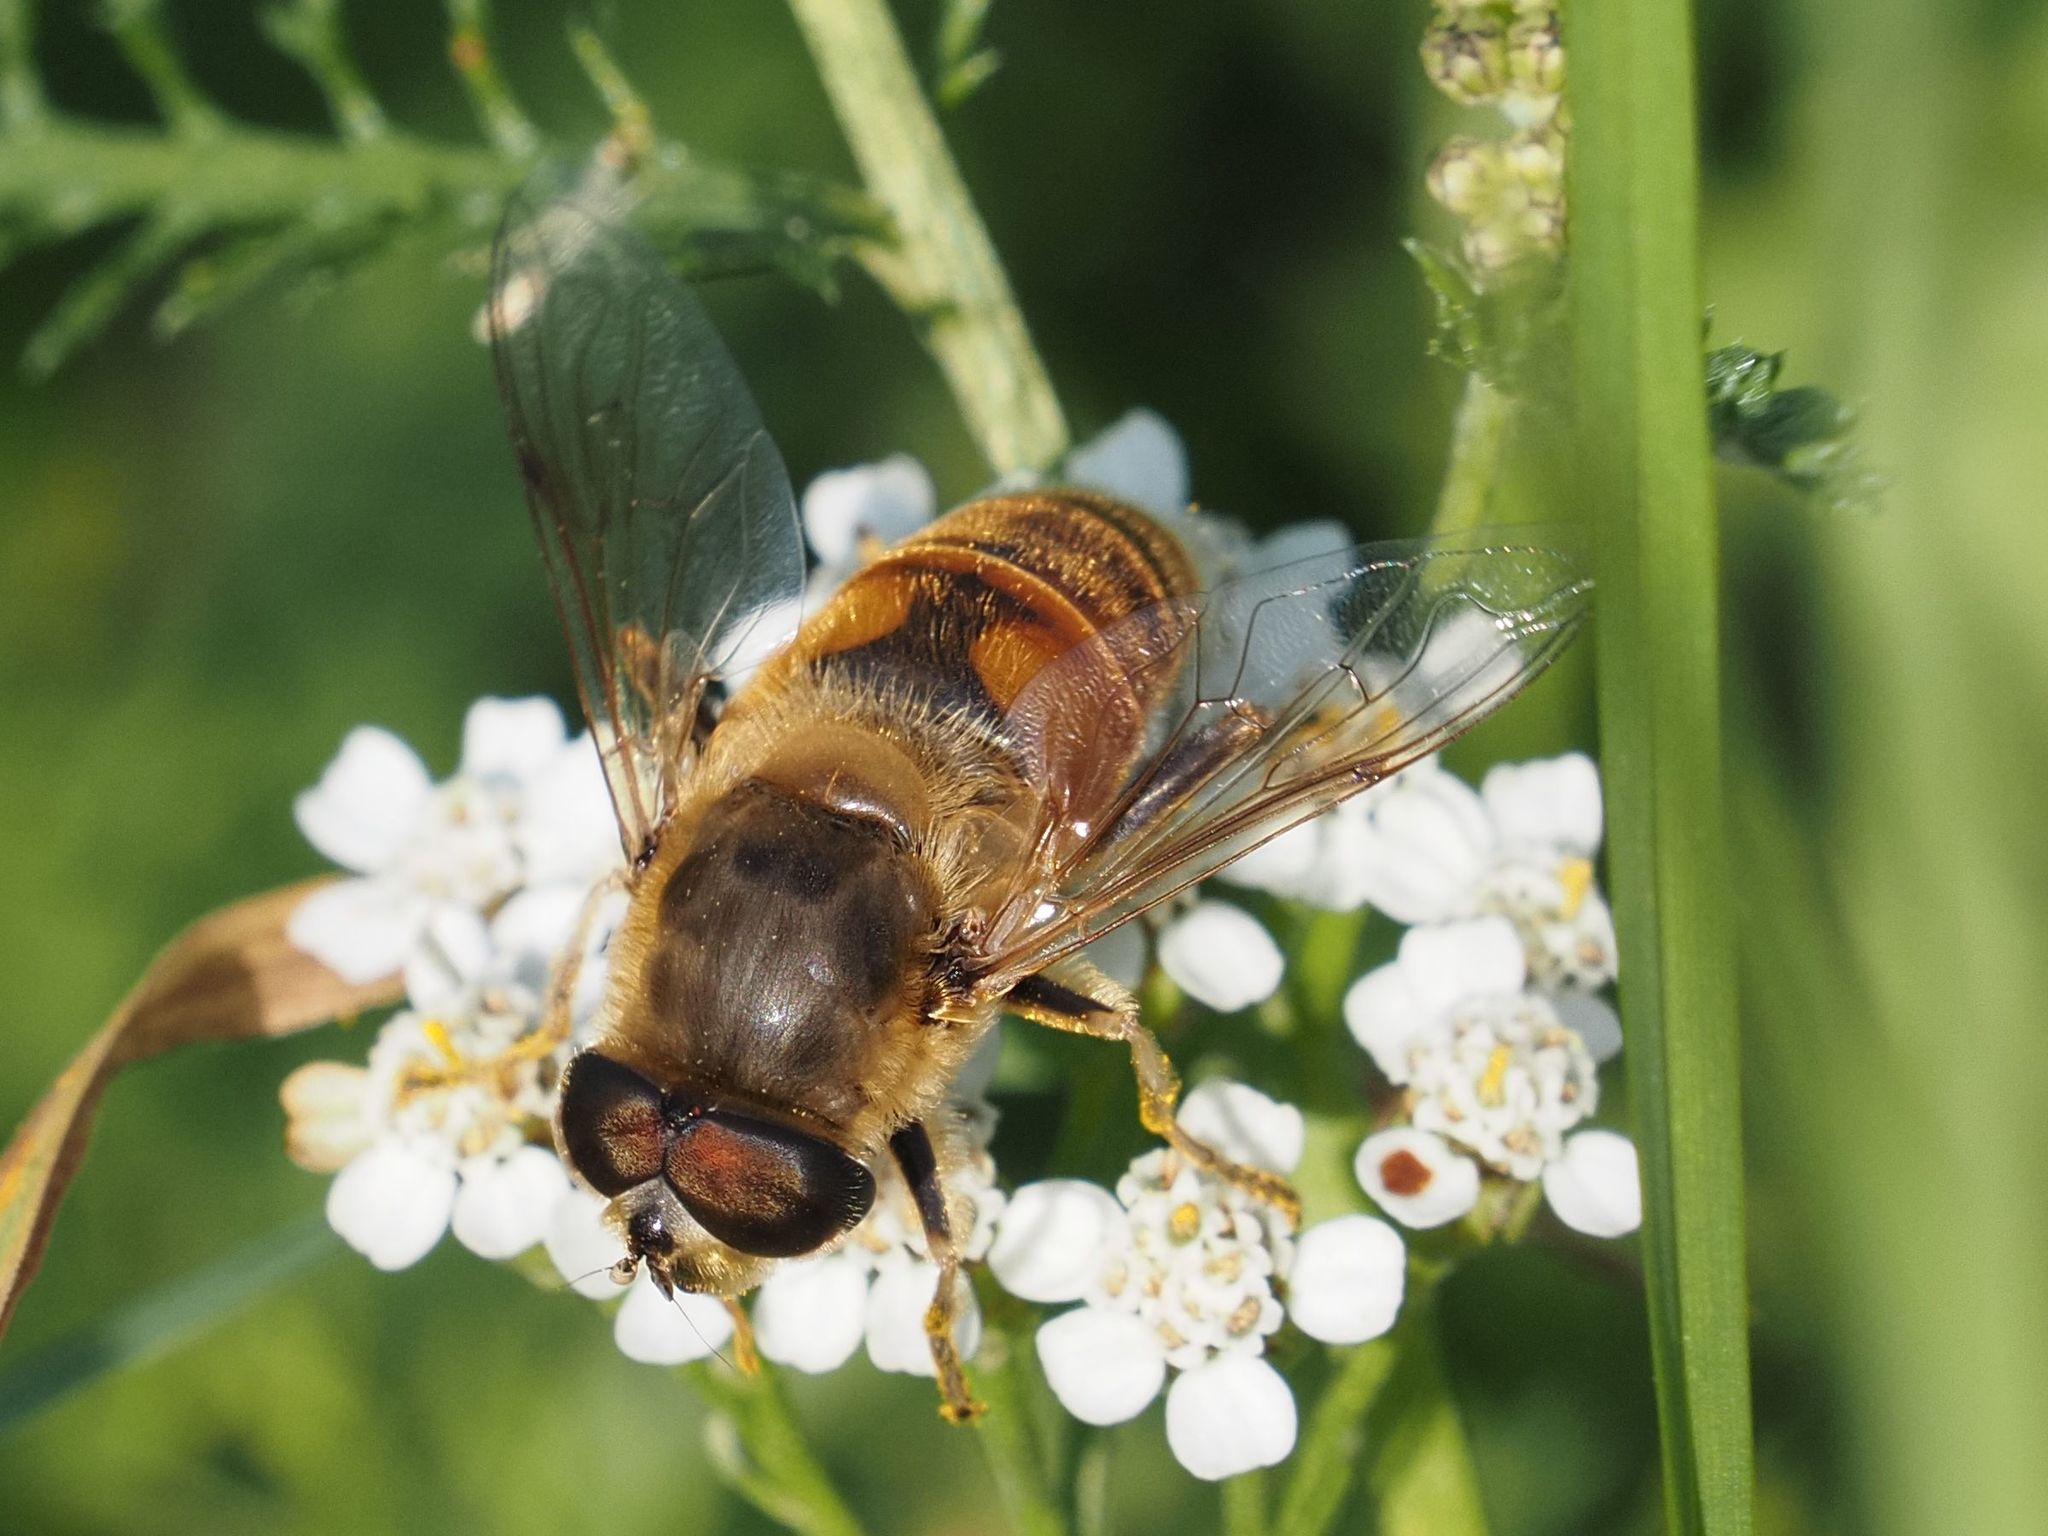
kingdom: Animalia
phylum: Arthropoda
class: Insecta
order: Diptera
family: Syrphidae
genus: Eristalis
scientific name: Eristalis tenax
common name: Drone fly
